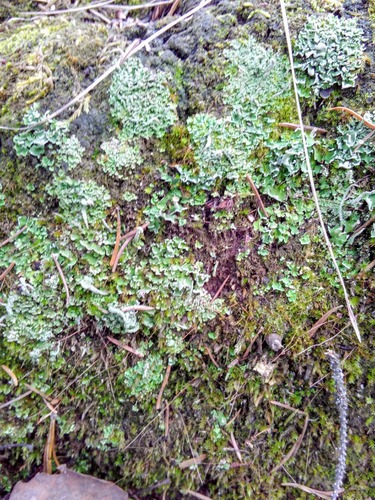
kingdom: Fungi
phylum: Ascomycota
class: Lecanoromycetes
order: Lecanorales
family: Cladoniaceae
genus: Cladonia
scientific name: Cladonia
